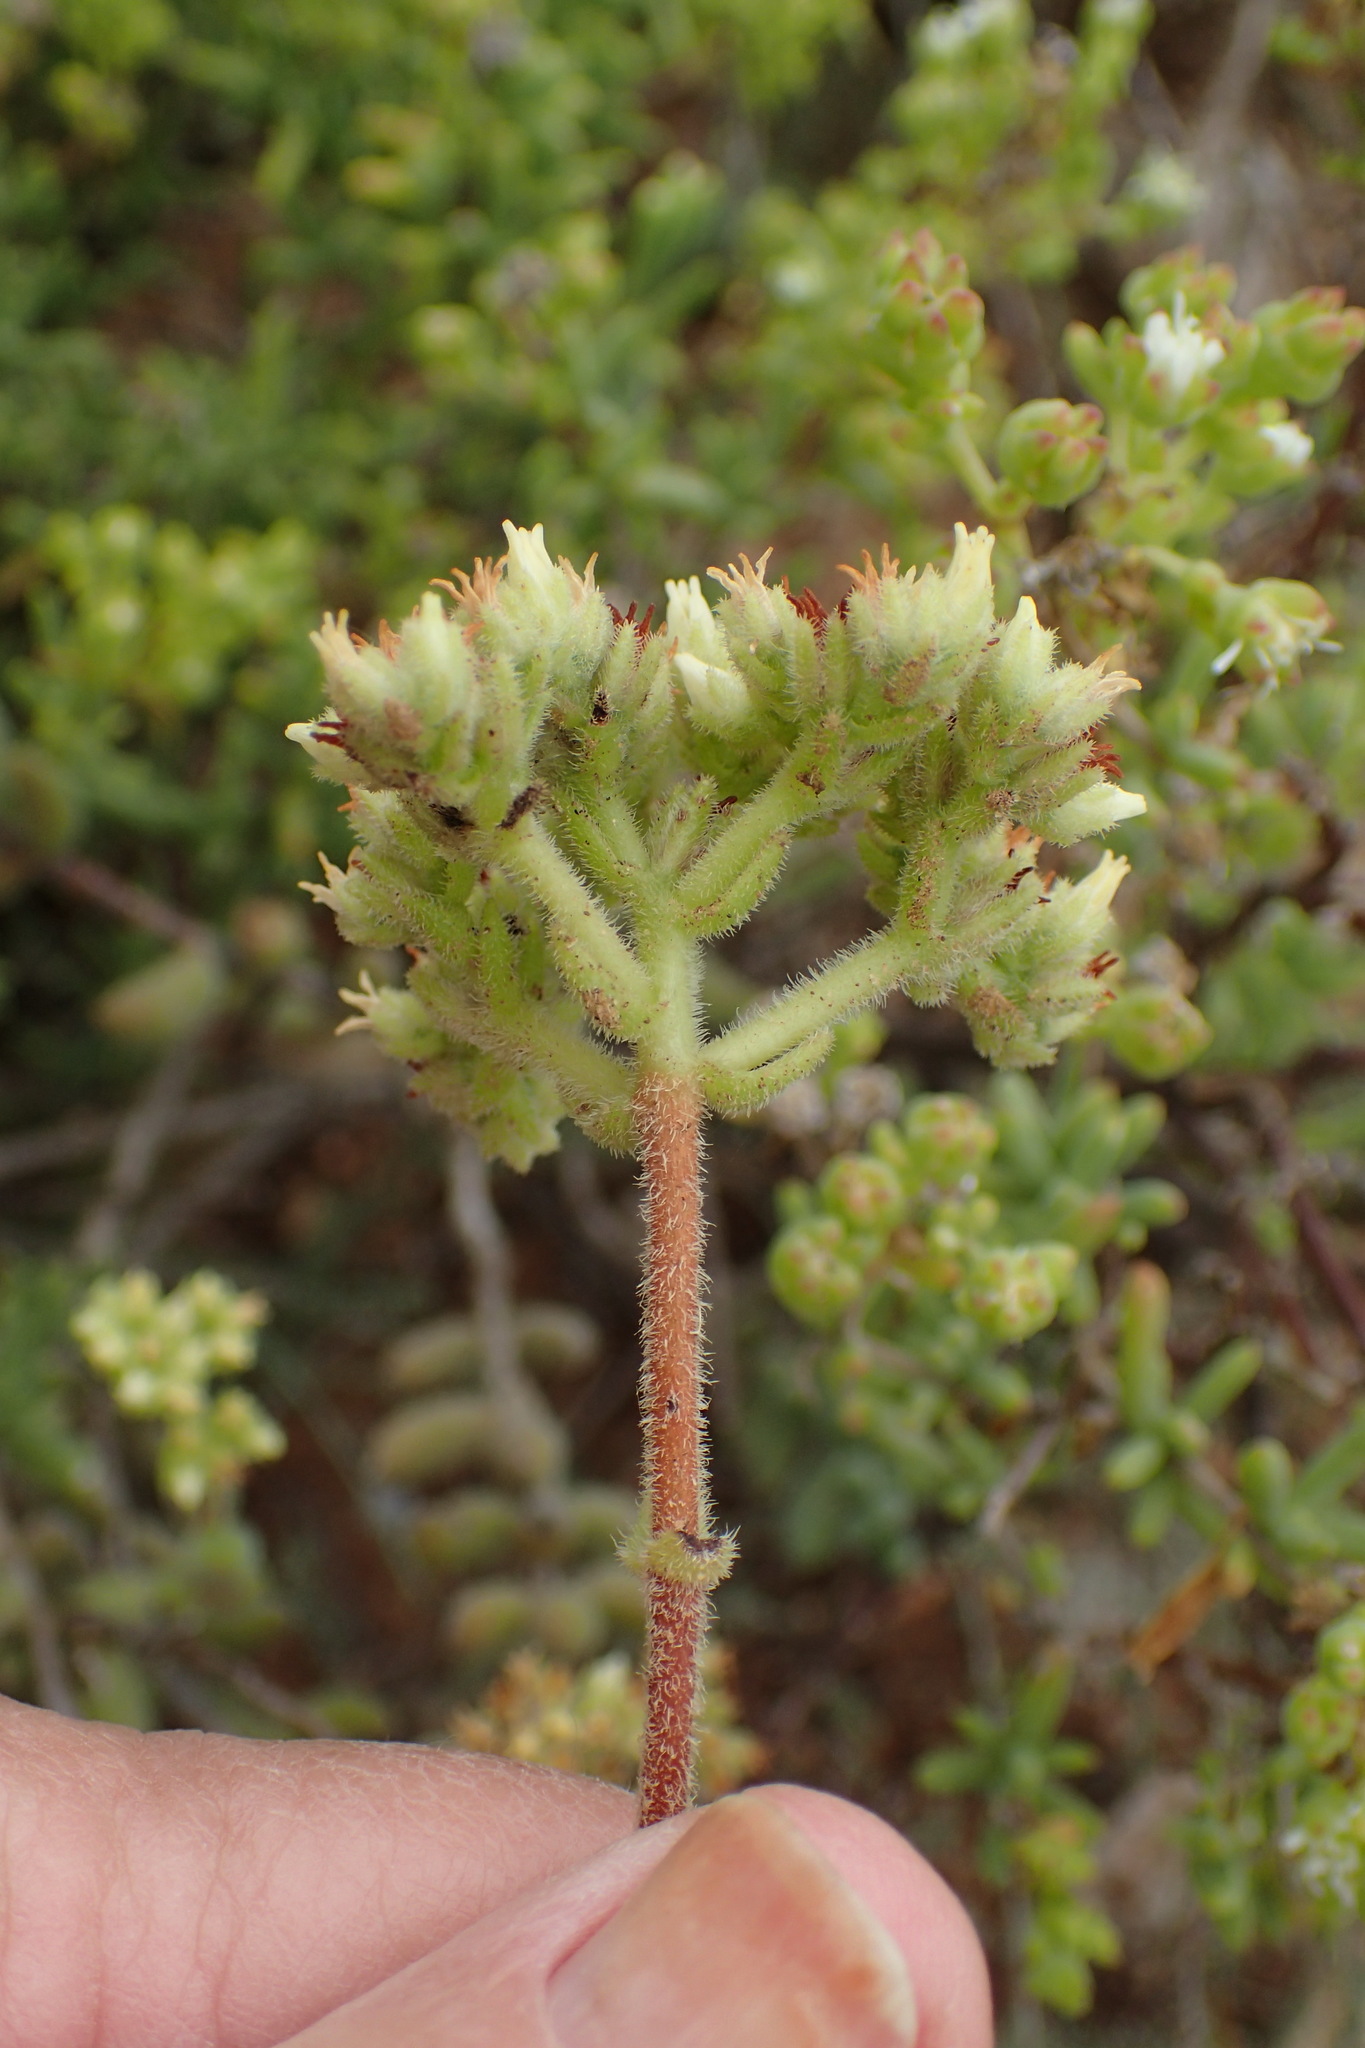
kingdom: Plantae
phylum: Tracheophyta
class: Magnoliopsida
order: Saxifragales
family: Crassulaceae
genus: Crassula
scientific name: Crassula mesembryanthoides
